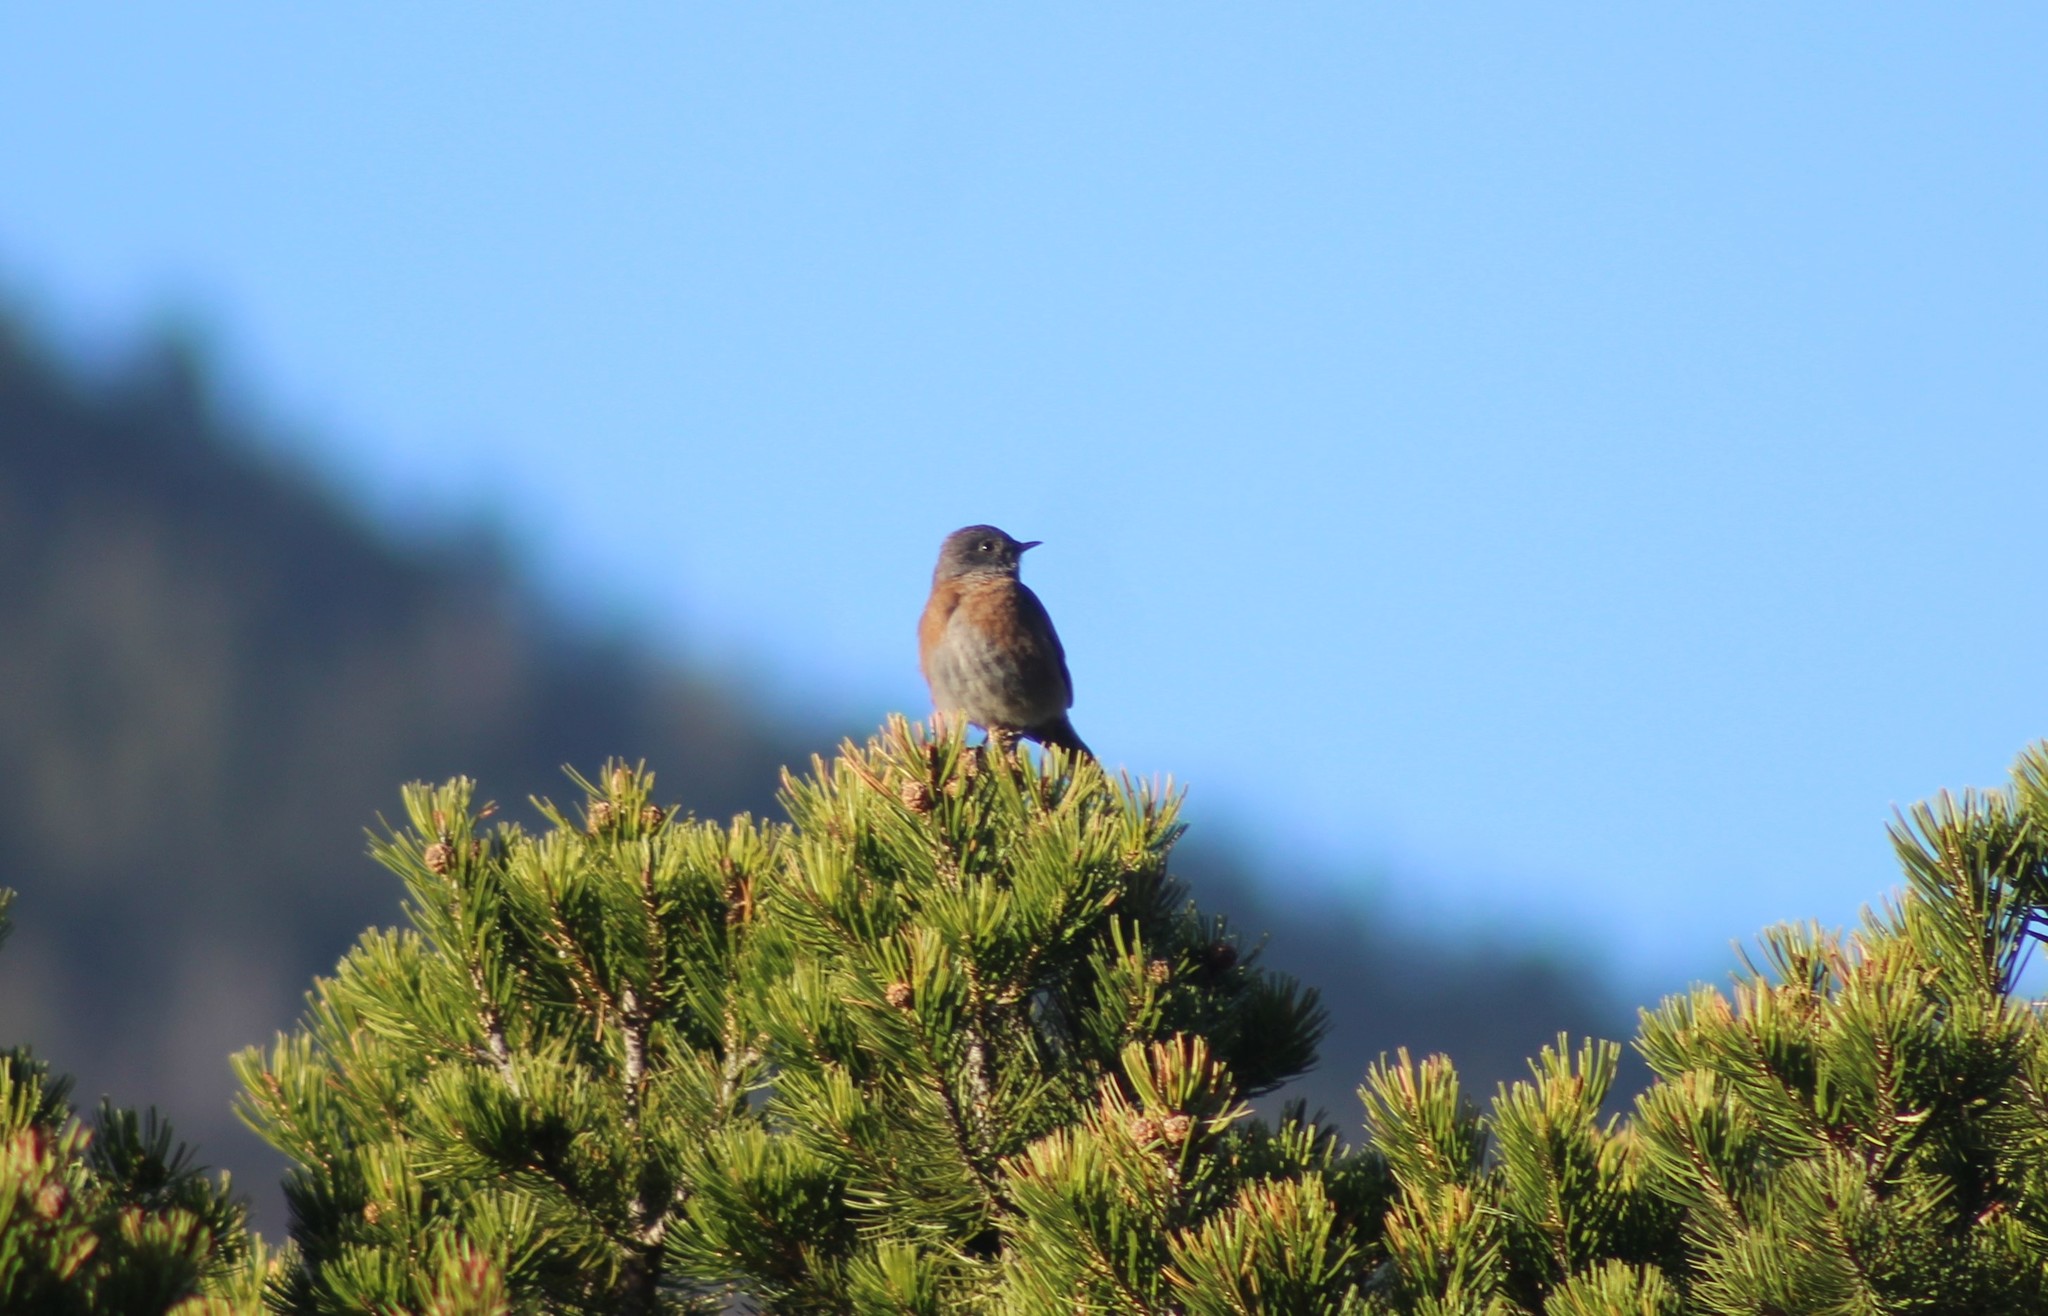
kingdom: Animalia
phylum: Chordata
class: Aves
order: Passeriformes
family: Turdidae
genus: Sialia
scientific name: Sialia mexicana
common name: Western bluebird
